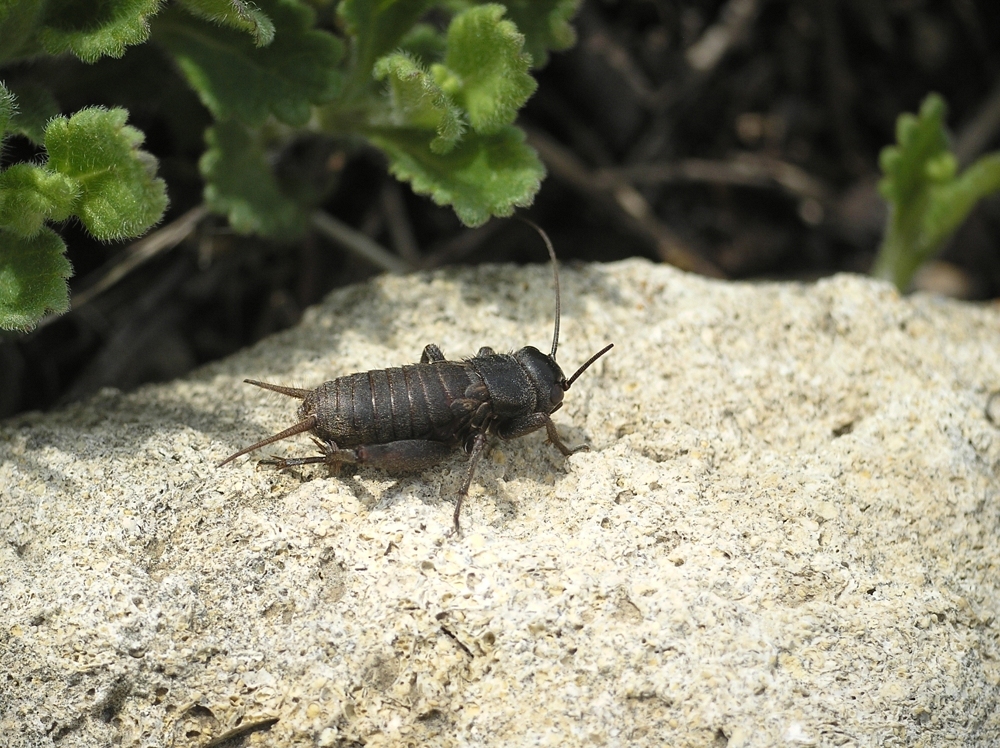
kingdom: Animalia
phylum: Arthropoda
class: Insecta
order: Orthoptera
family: Gryllidae
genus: Melanogryllus
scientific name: Melanogryllus desertus
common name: Desert cricket
